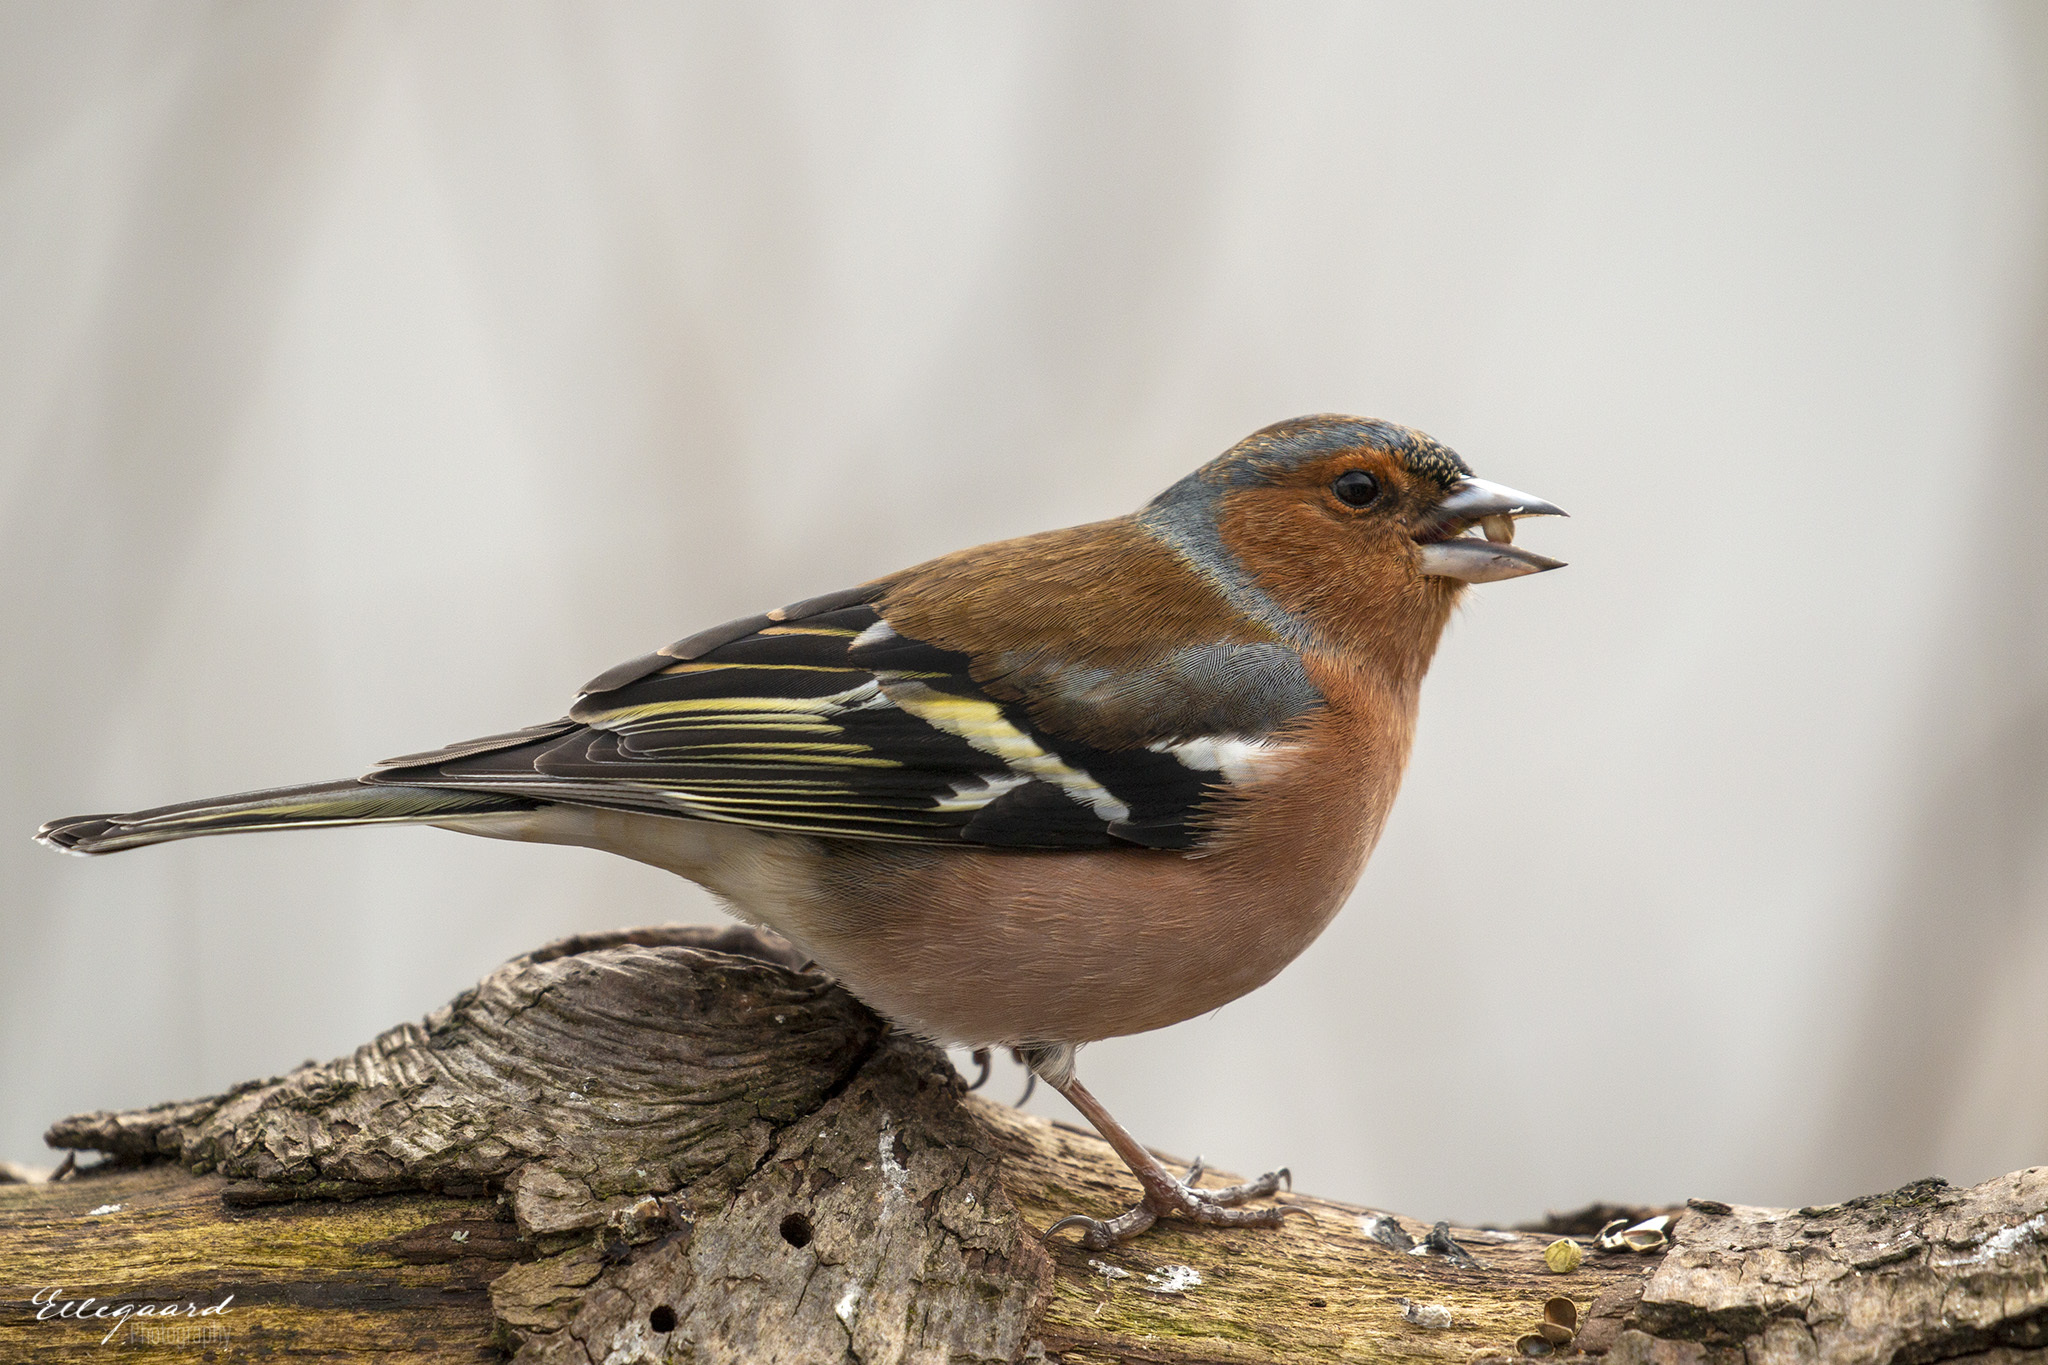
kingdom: Animalia
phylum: Chordata
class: Aves
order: Passeriformes
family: Fringillidae
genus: Fringilla
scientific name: Fringilla coelebs
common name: Common chaffinch
